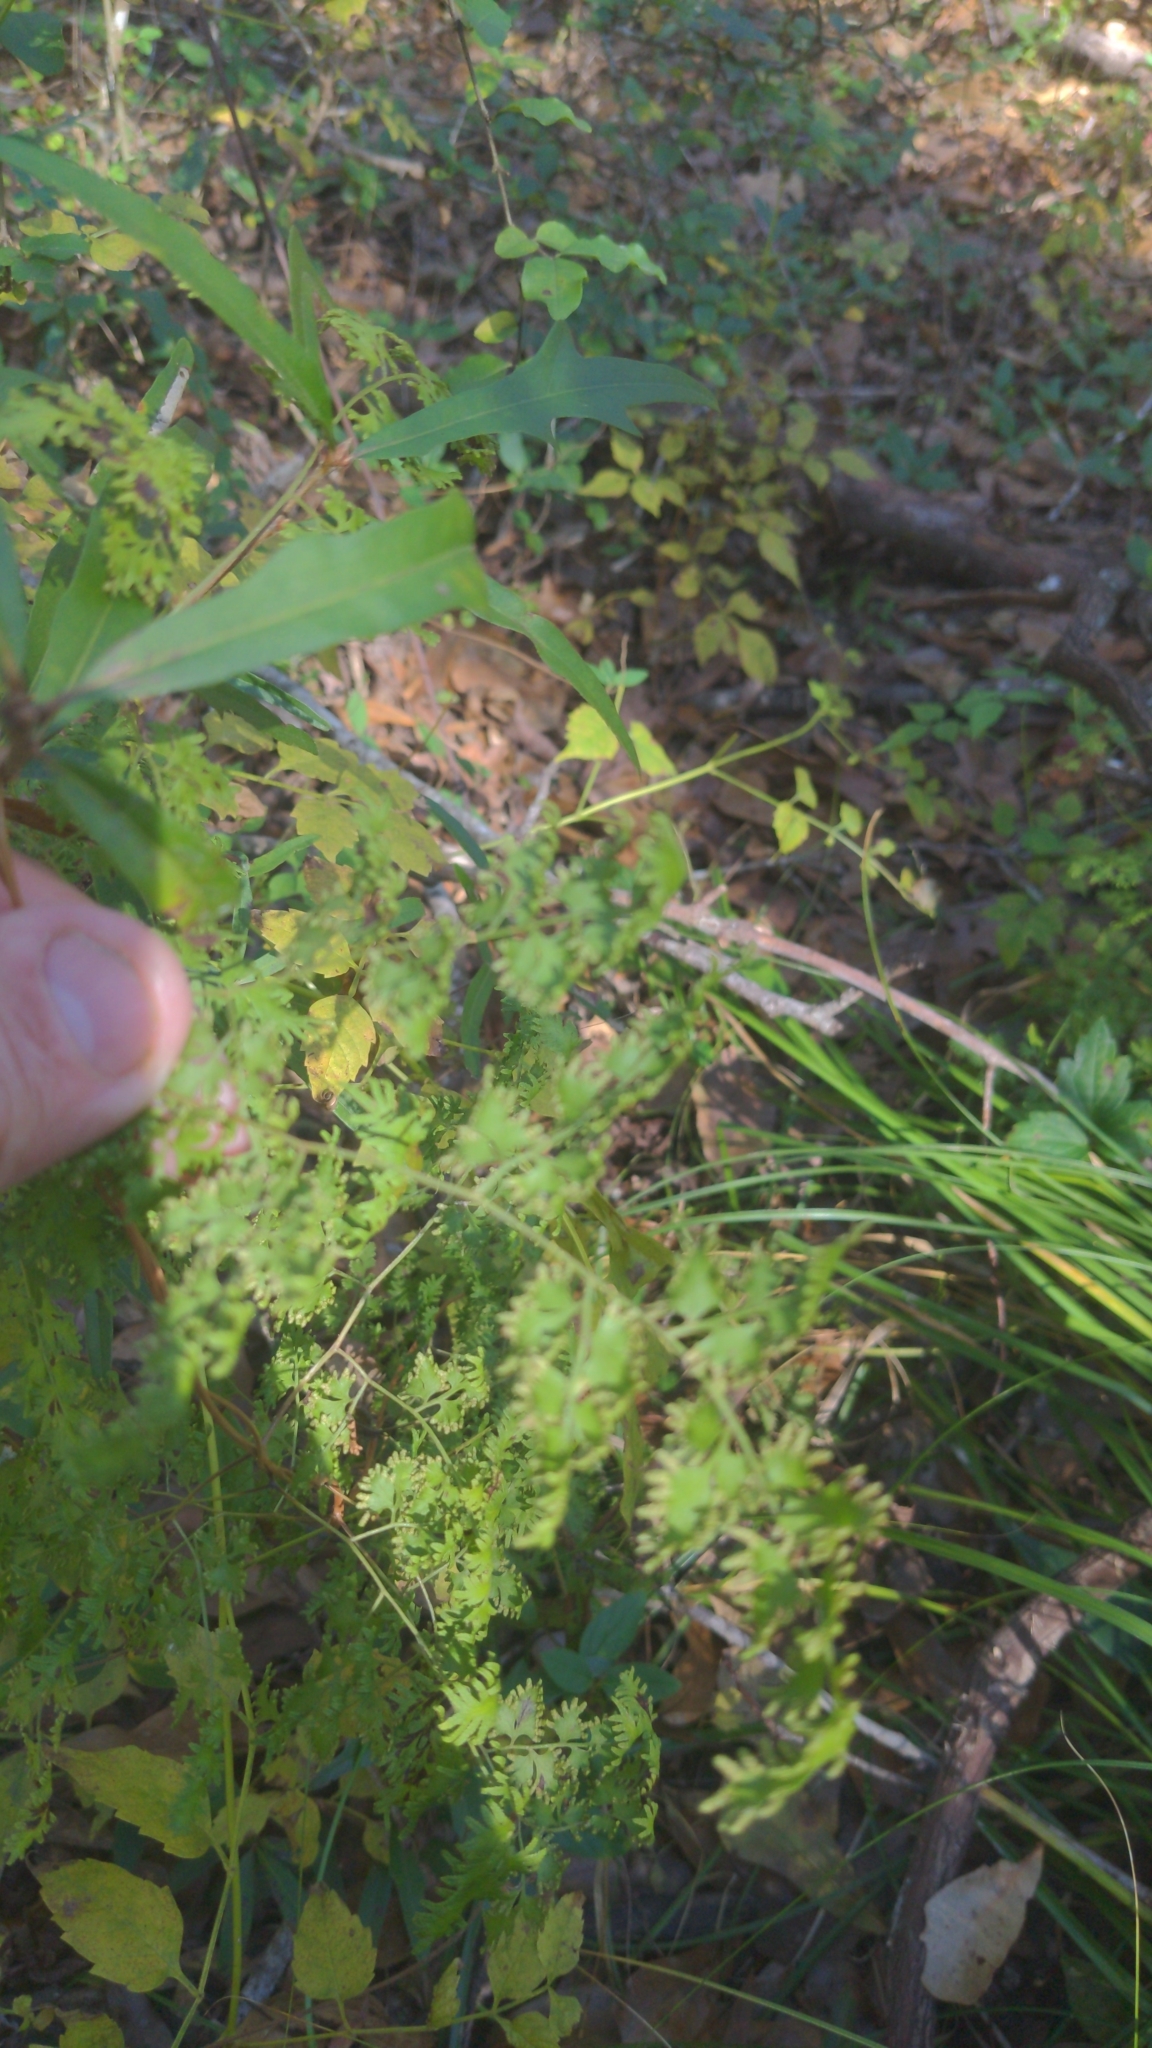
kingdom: Plantae
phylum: Tracheophyta
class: Polypodiopsida
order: Schizaeales
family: Lygodiaceae
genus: Lygodium
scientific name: Lygodium japonicum
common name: Japanese climbing fern
